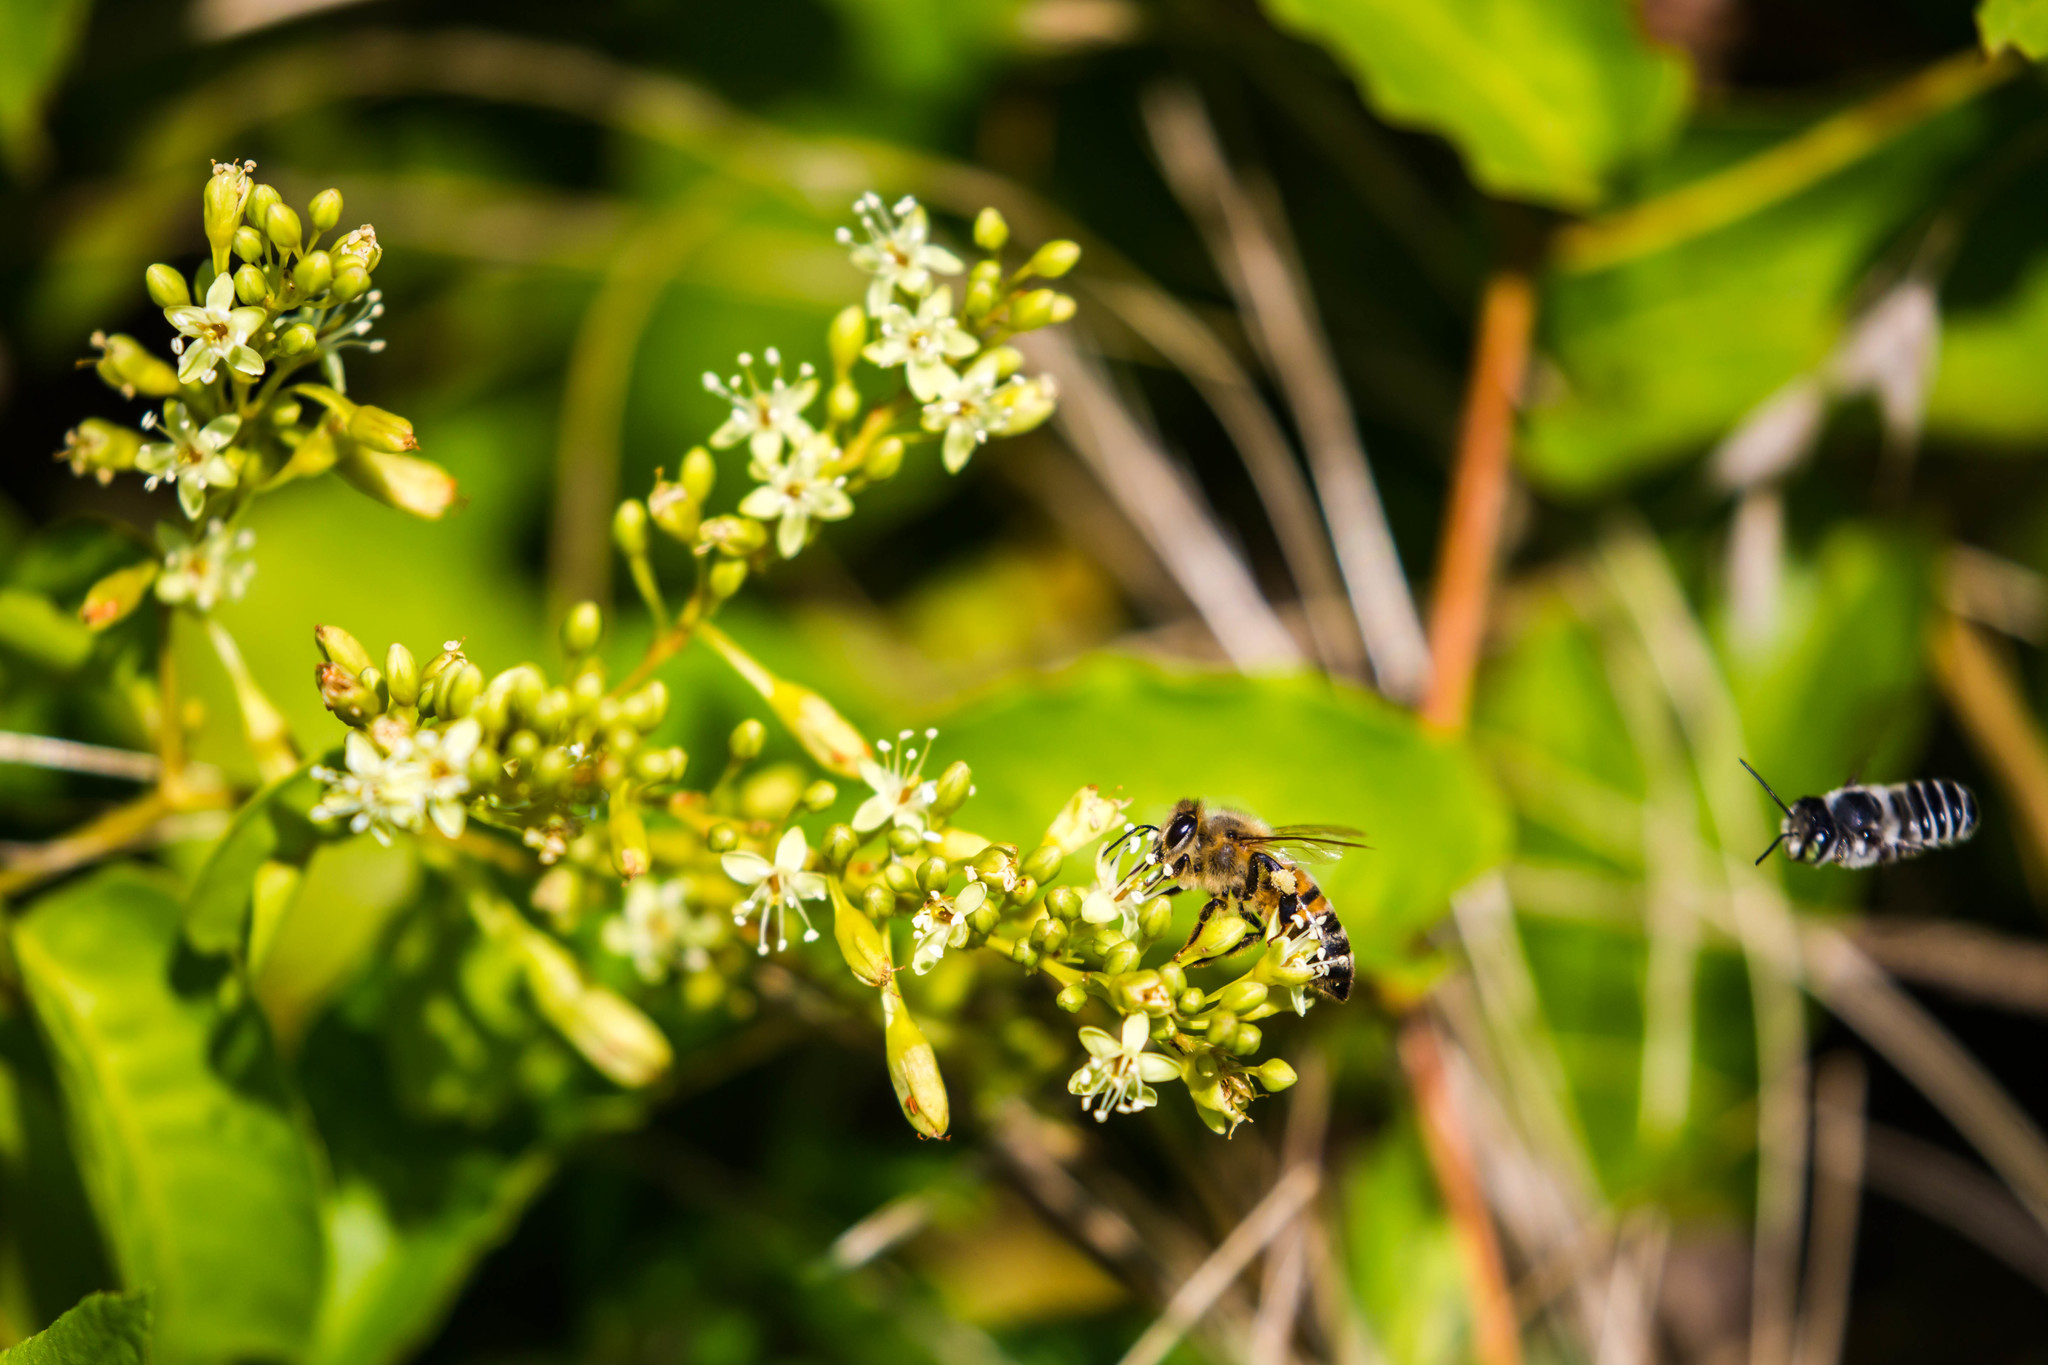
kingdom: Animalia
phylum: Arthropoda
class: Insecta
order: Hymenoptera
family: Apidae
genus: Apis
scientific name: Apis mellifera
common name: Honey bee
